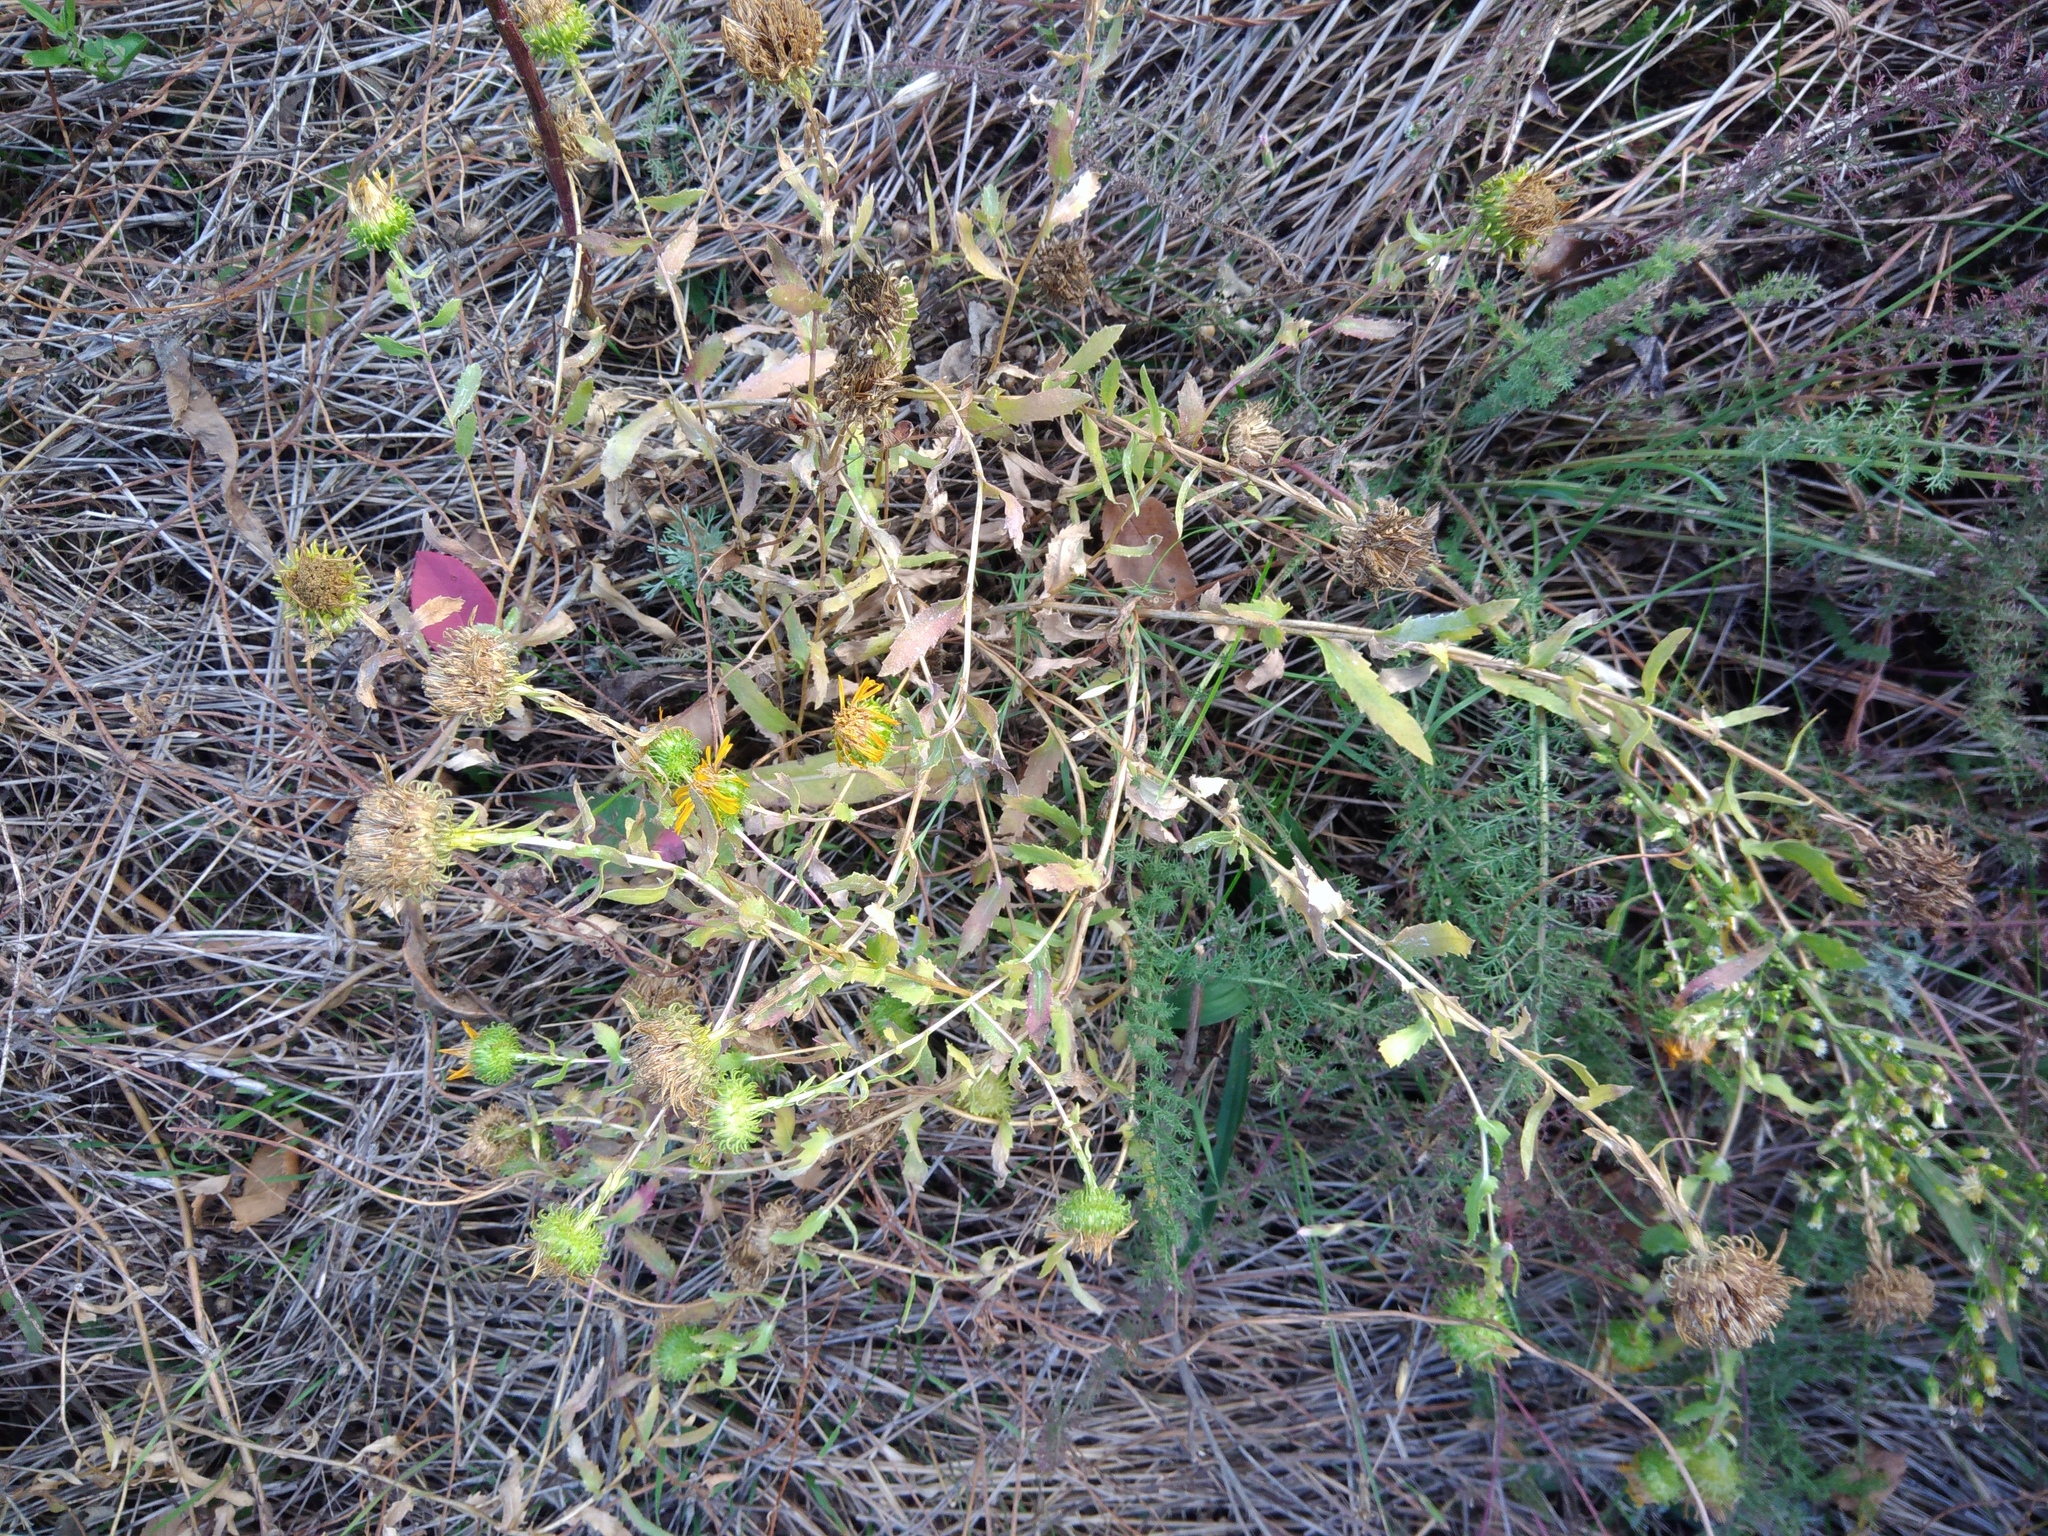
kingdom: Plantae
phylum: Tracheophyta
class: Magnoliopsida
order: Asterales
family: Asteraceae
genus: Grindelia
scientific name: Grindelia squarrosa
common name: Curly-cup gumweed
